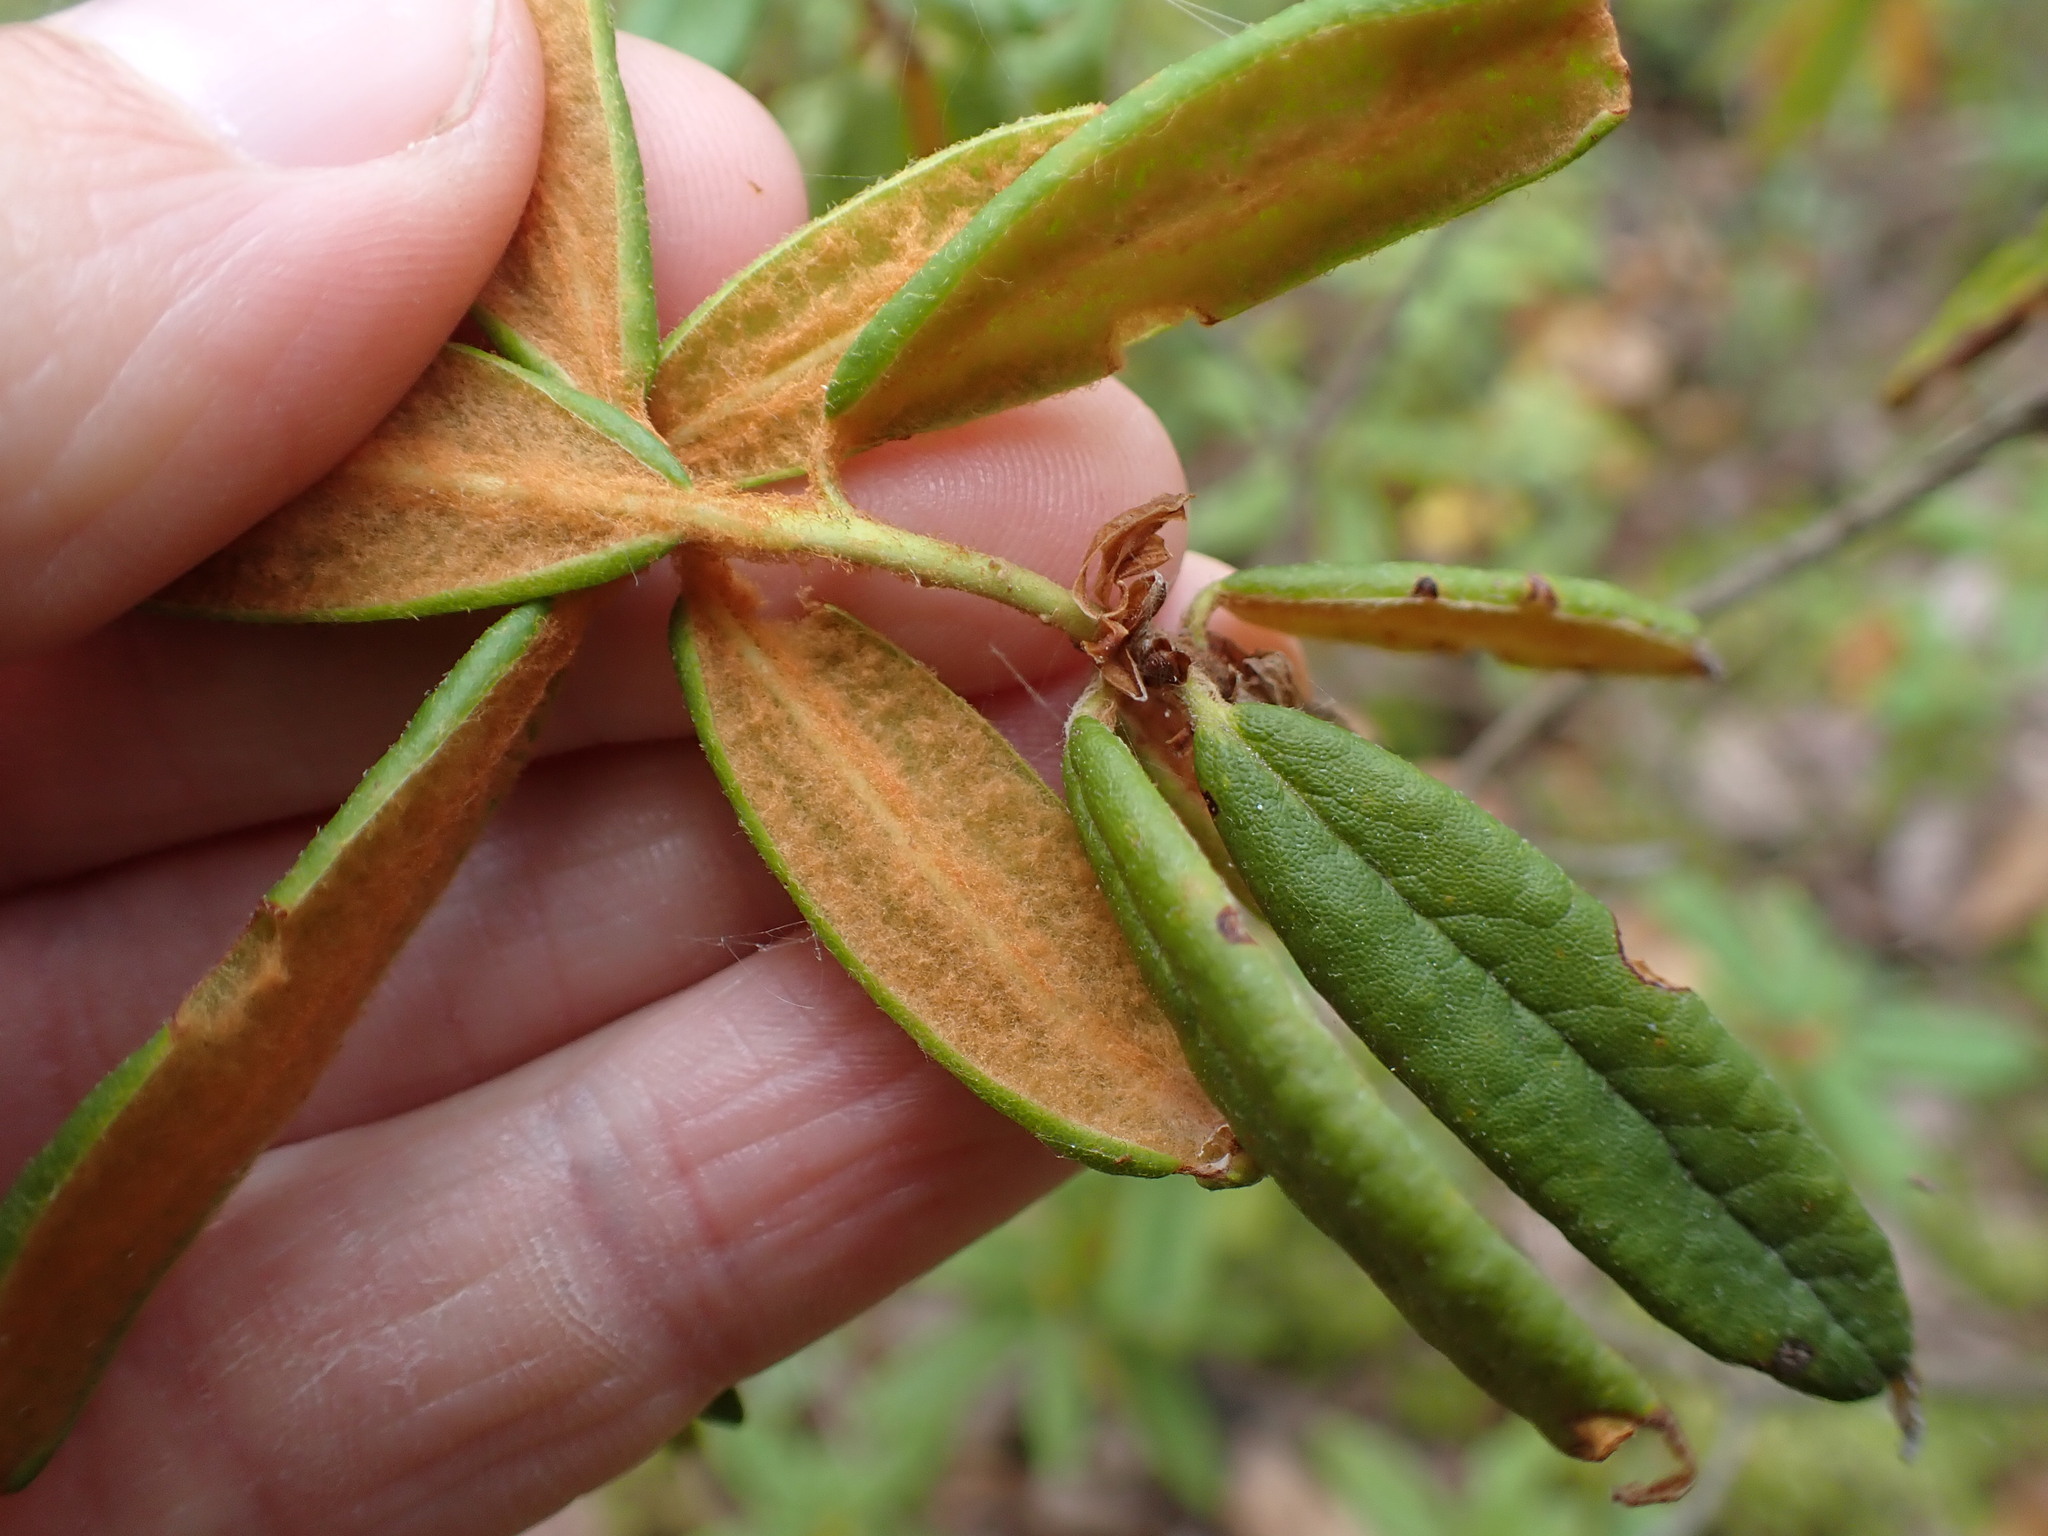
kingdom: Plantae
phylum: Tracheophyta
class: Magnoliopsida
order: Ericales
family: Ericaceae
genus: Rhododendron
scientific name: Rhododendron groenlandicum
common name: Bog labrador tea
